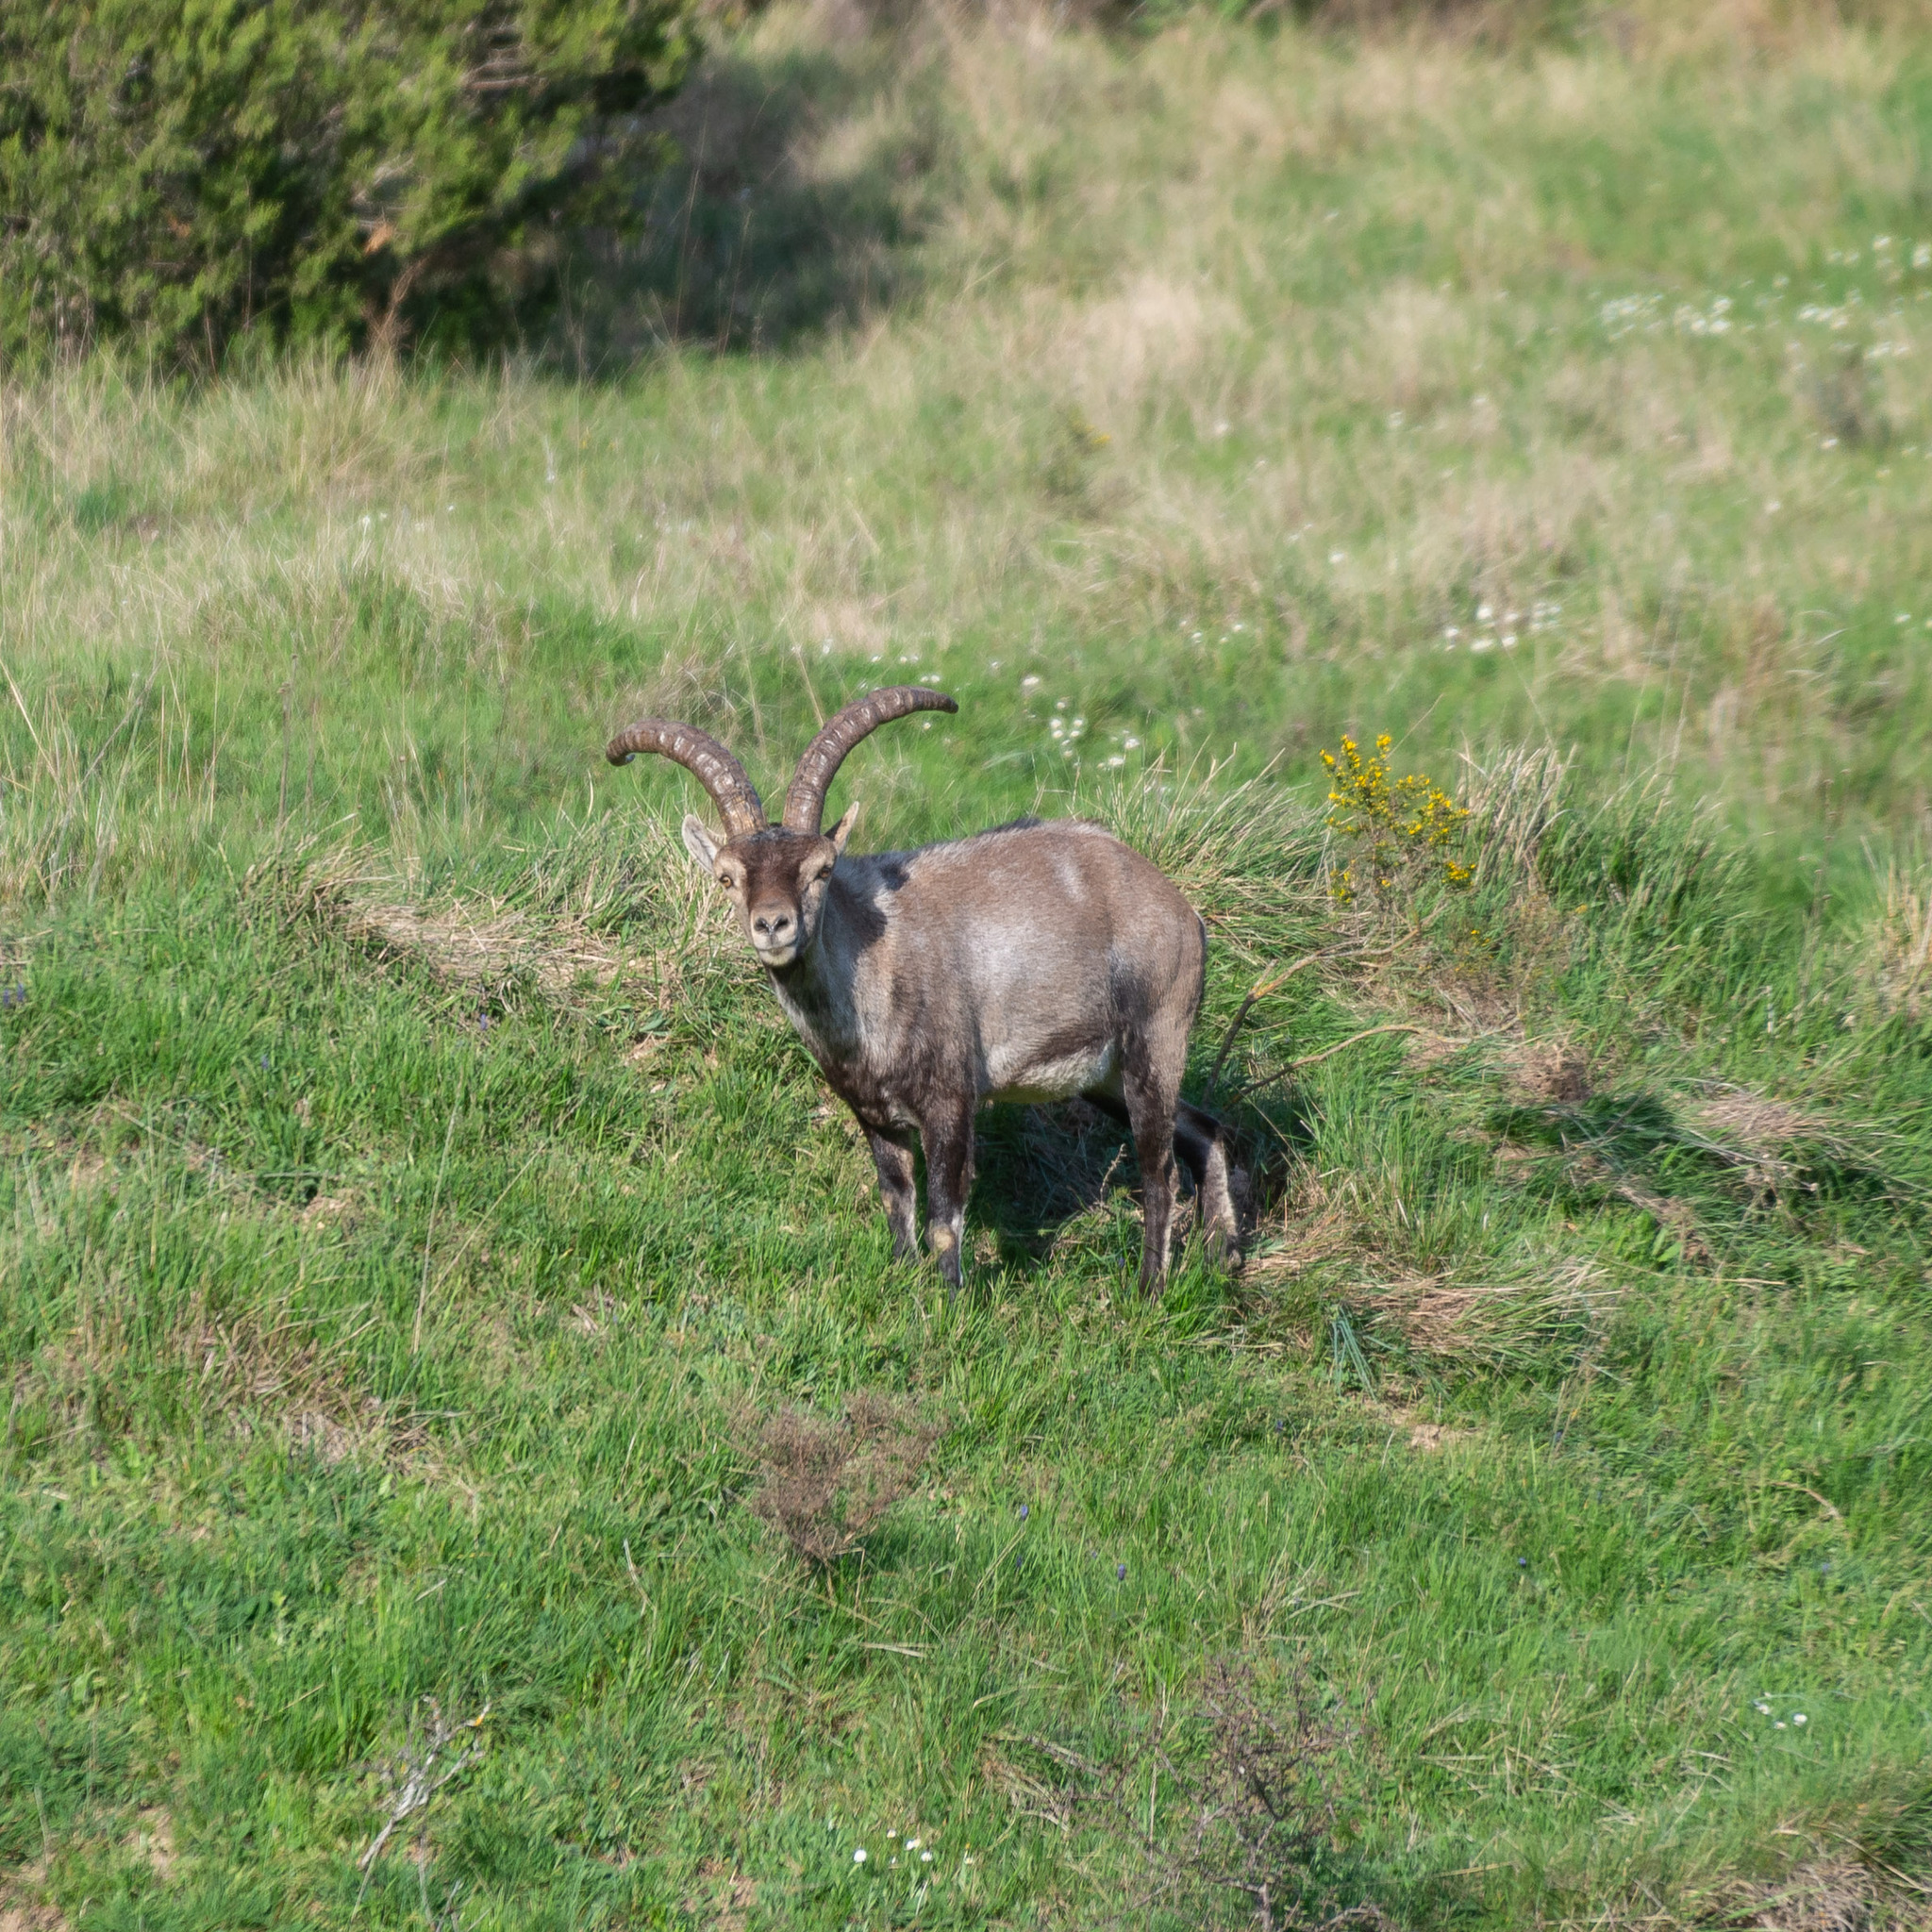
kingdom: Animalia
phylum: Chordata
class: Mammalia
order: Artiodactyla
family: Bovidae
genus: Capra
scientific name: Capra pyrenaica
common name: Spanish ibex
